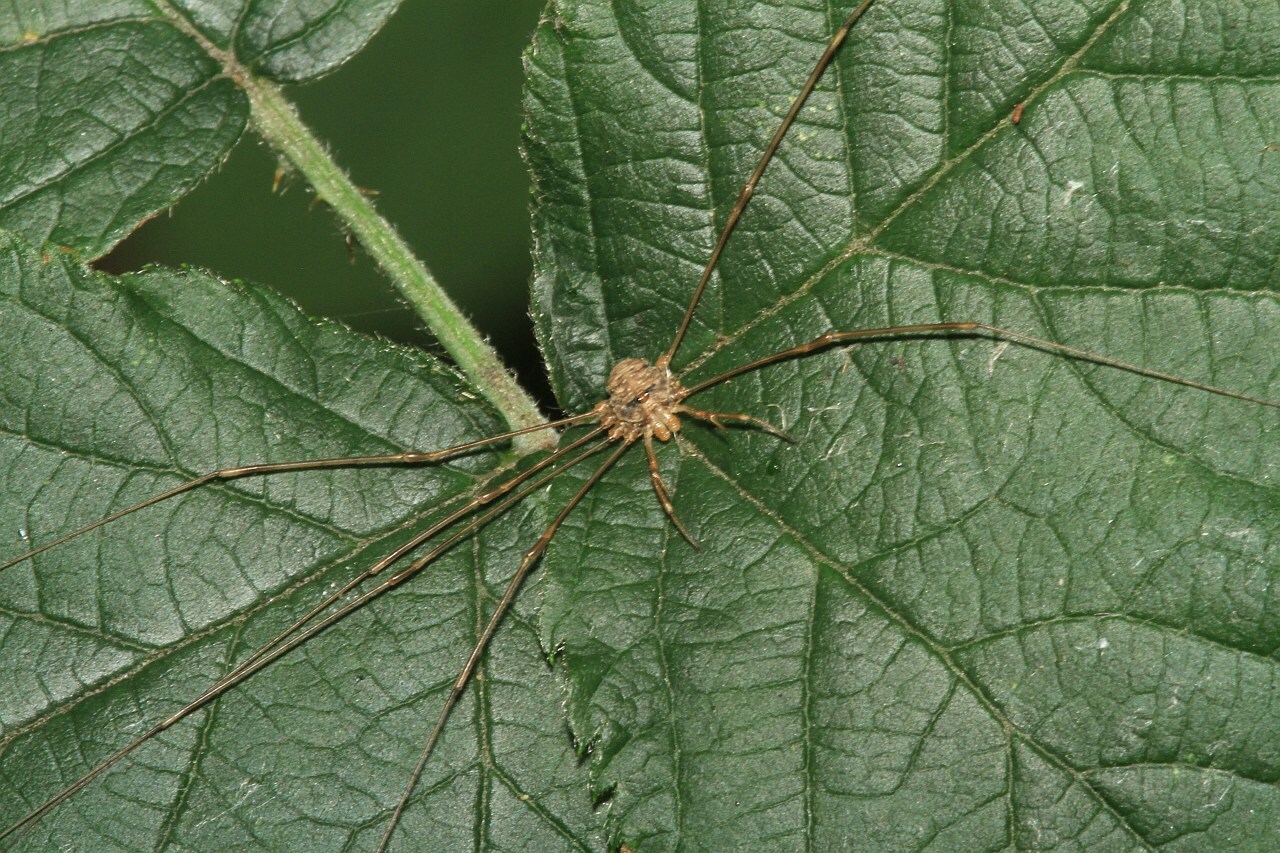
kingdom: Animalia
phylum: Arthropoda
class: Arachnida
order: Opiliones
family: Phalangiidae
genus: Dicranopalpus
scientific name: Dicranopalpus ramosus
